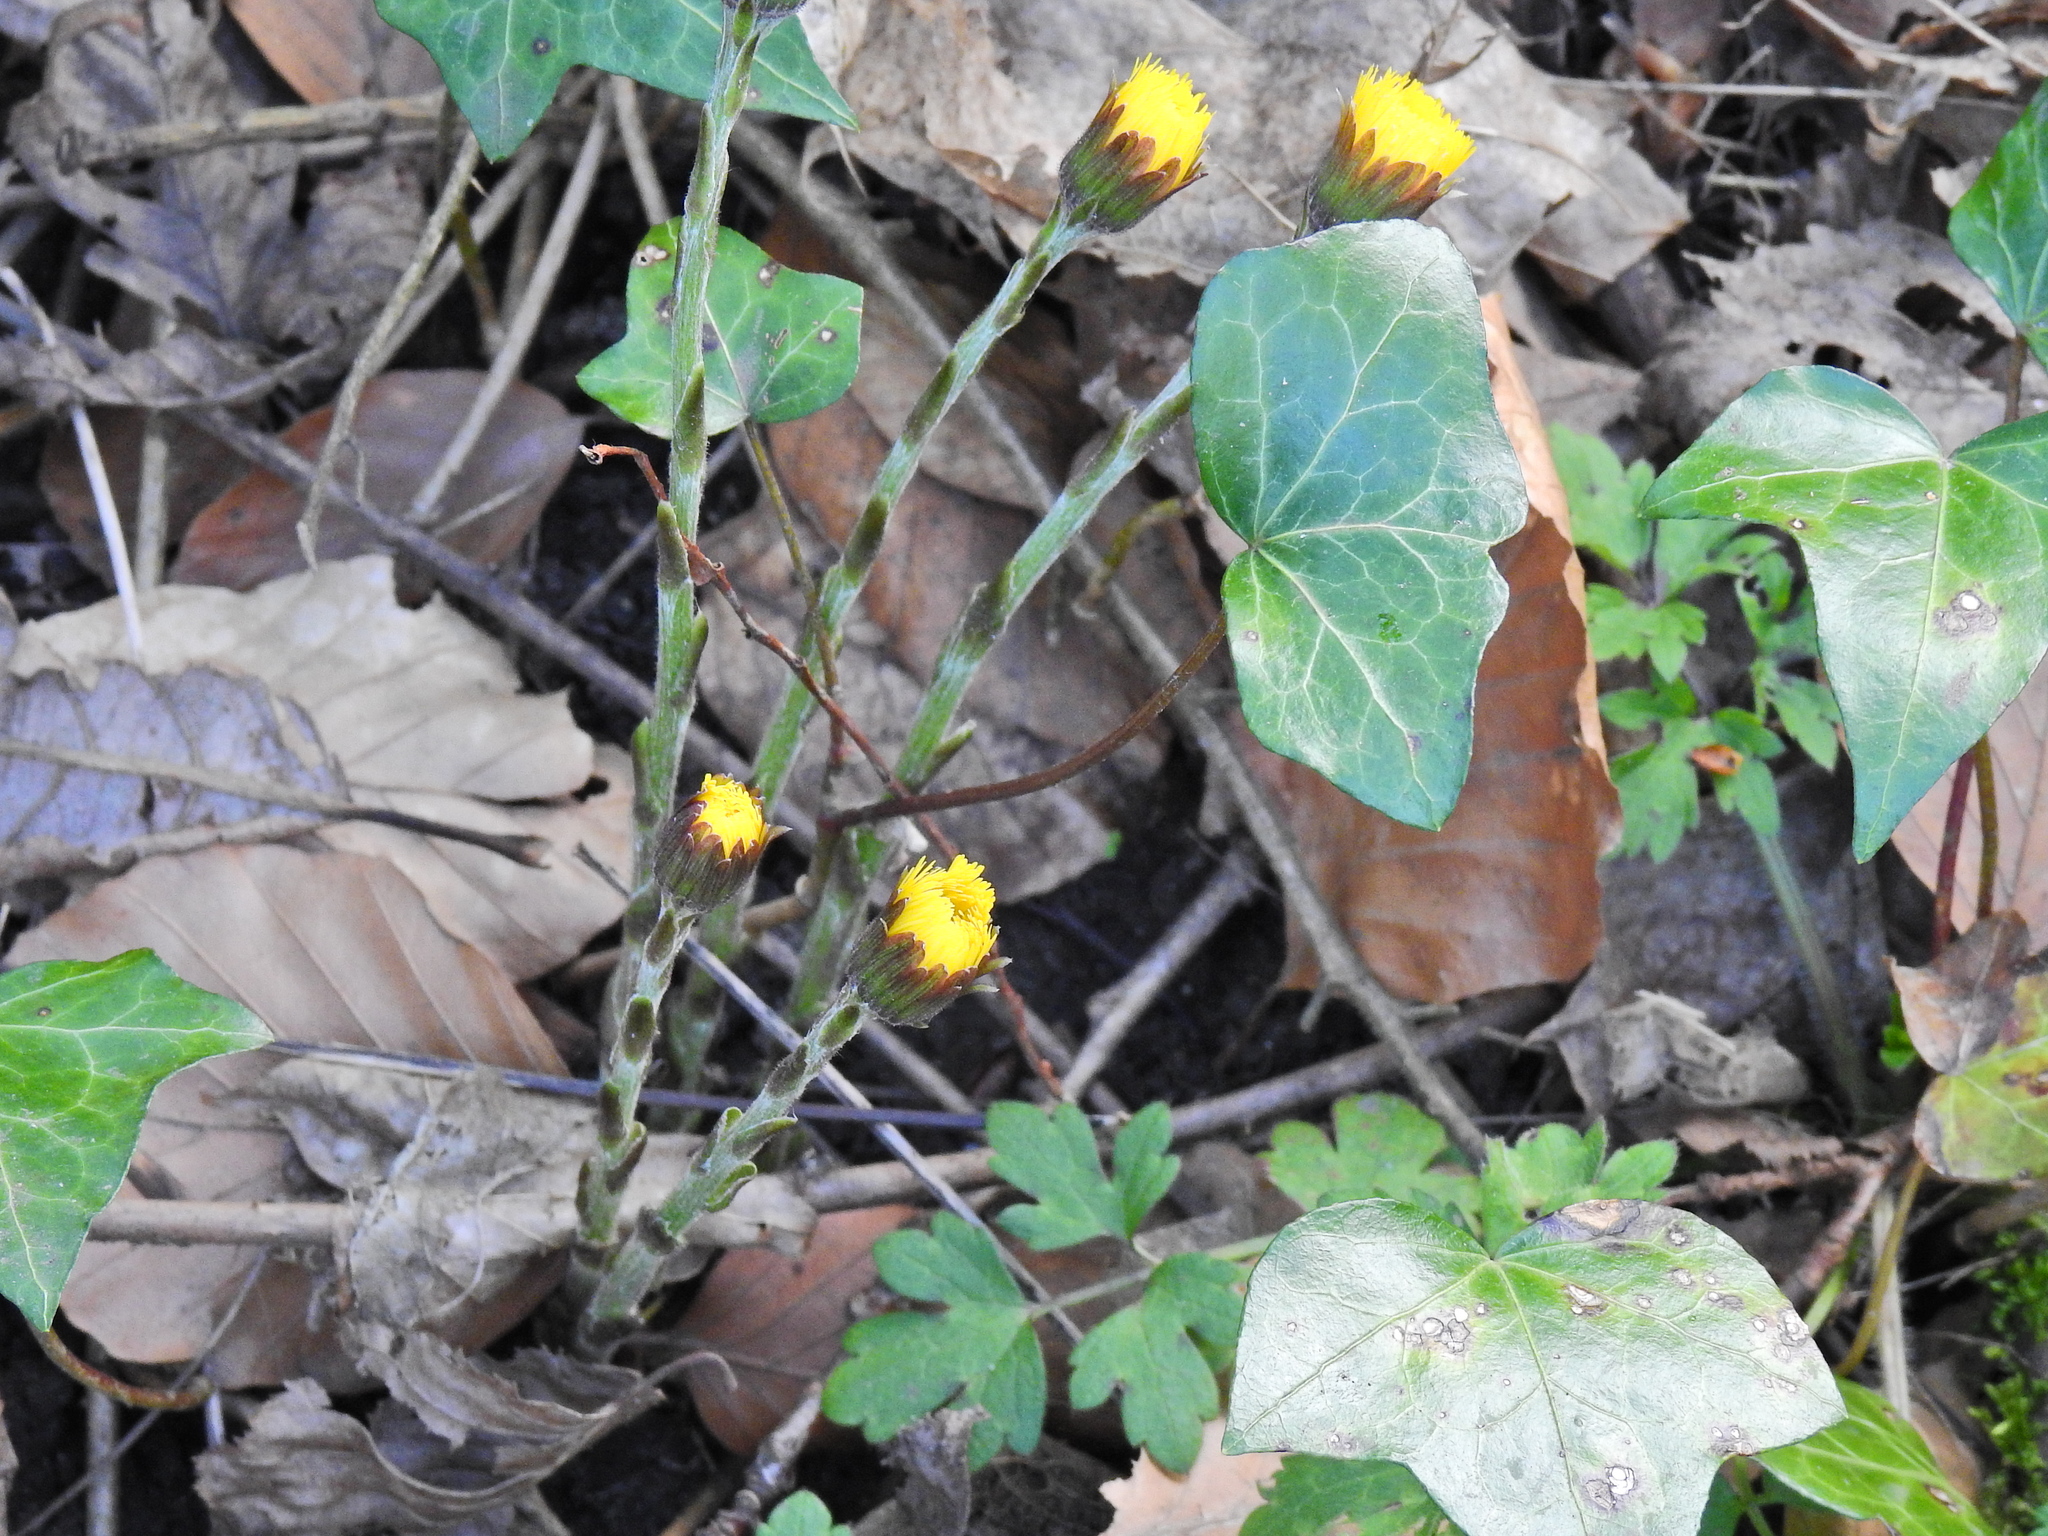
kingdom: Plantae
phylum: Tracheophyta
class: Magnoliopsida
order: Asterales
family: Asteraceae
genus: Tussilago
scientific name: Tussilago farfara
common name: Coltsfoot
